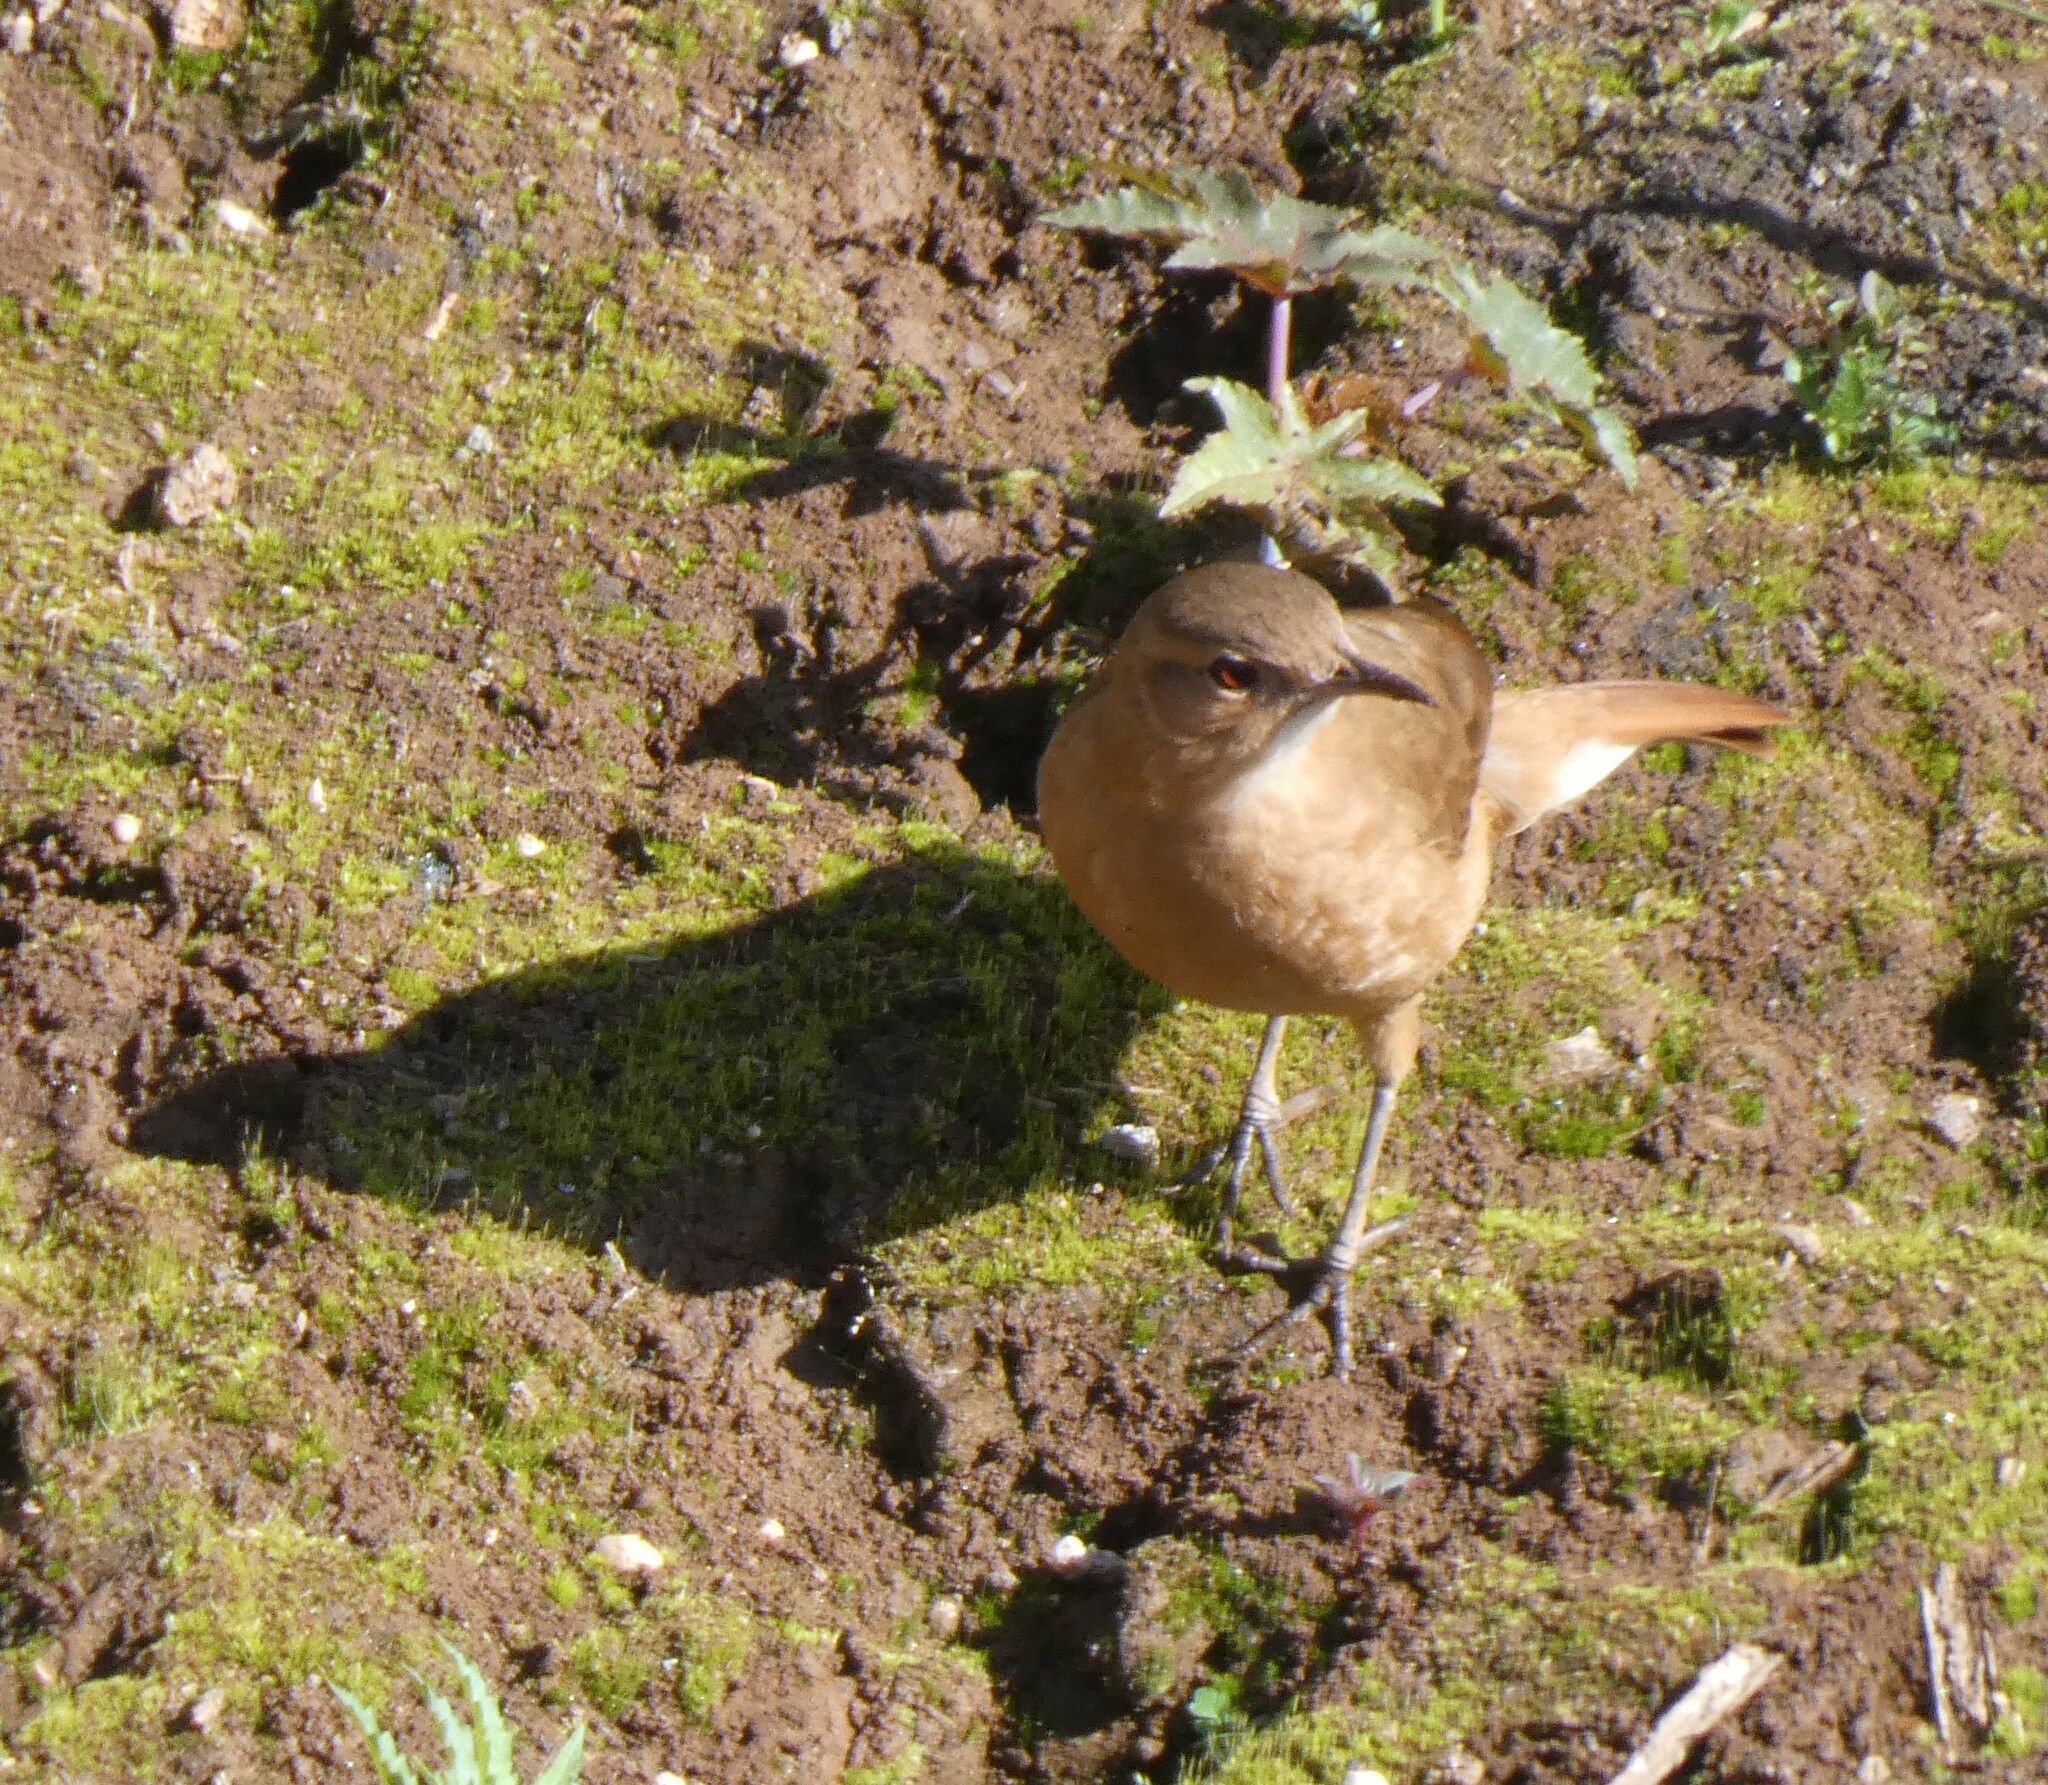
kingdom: Animalia
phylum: Chordata
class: Aves
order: Passeriformes
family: Furnariidae
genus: Furnarius
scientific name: Furnarius rufus
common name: Rufous hornero
